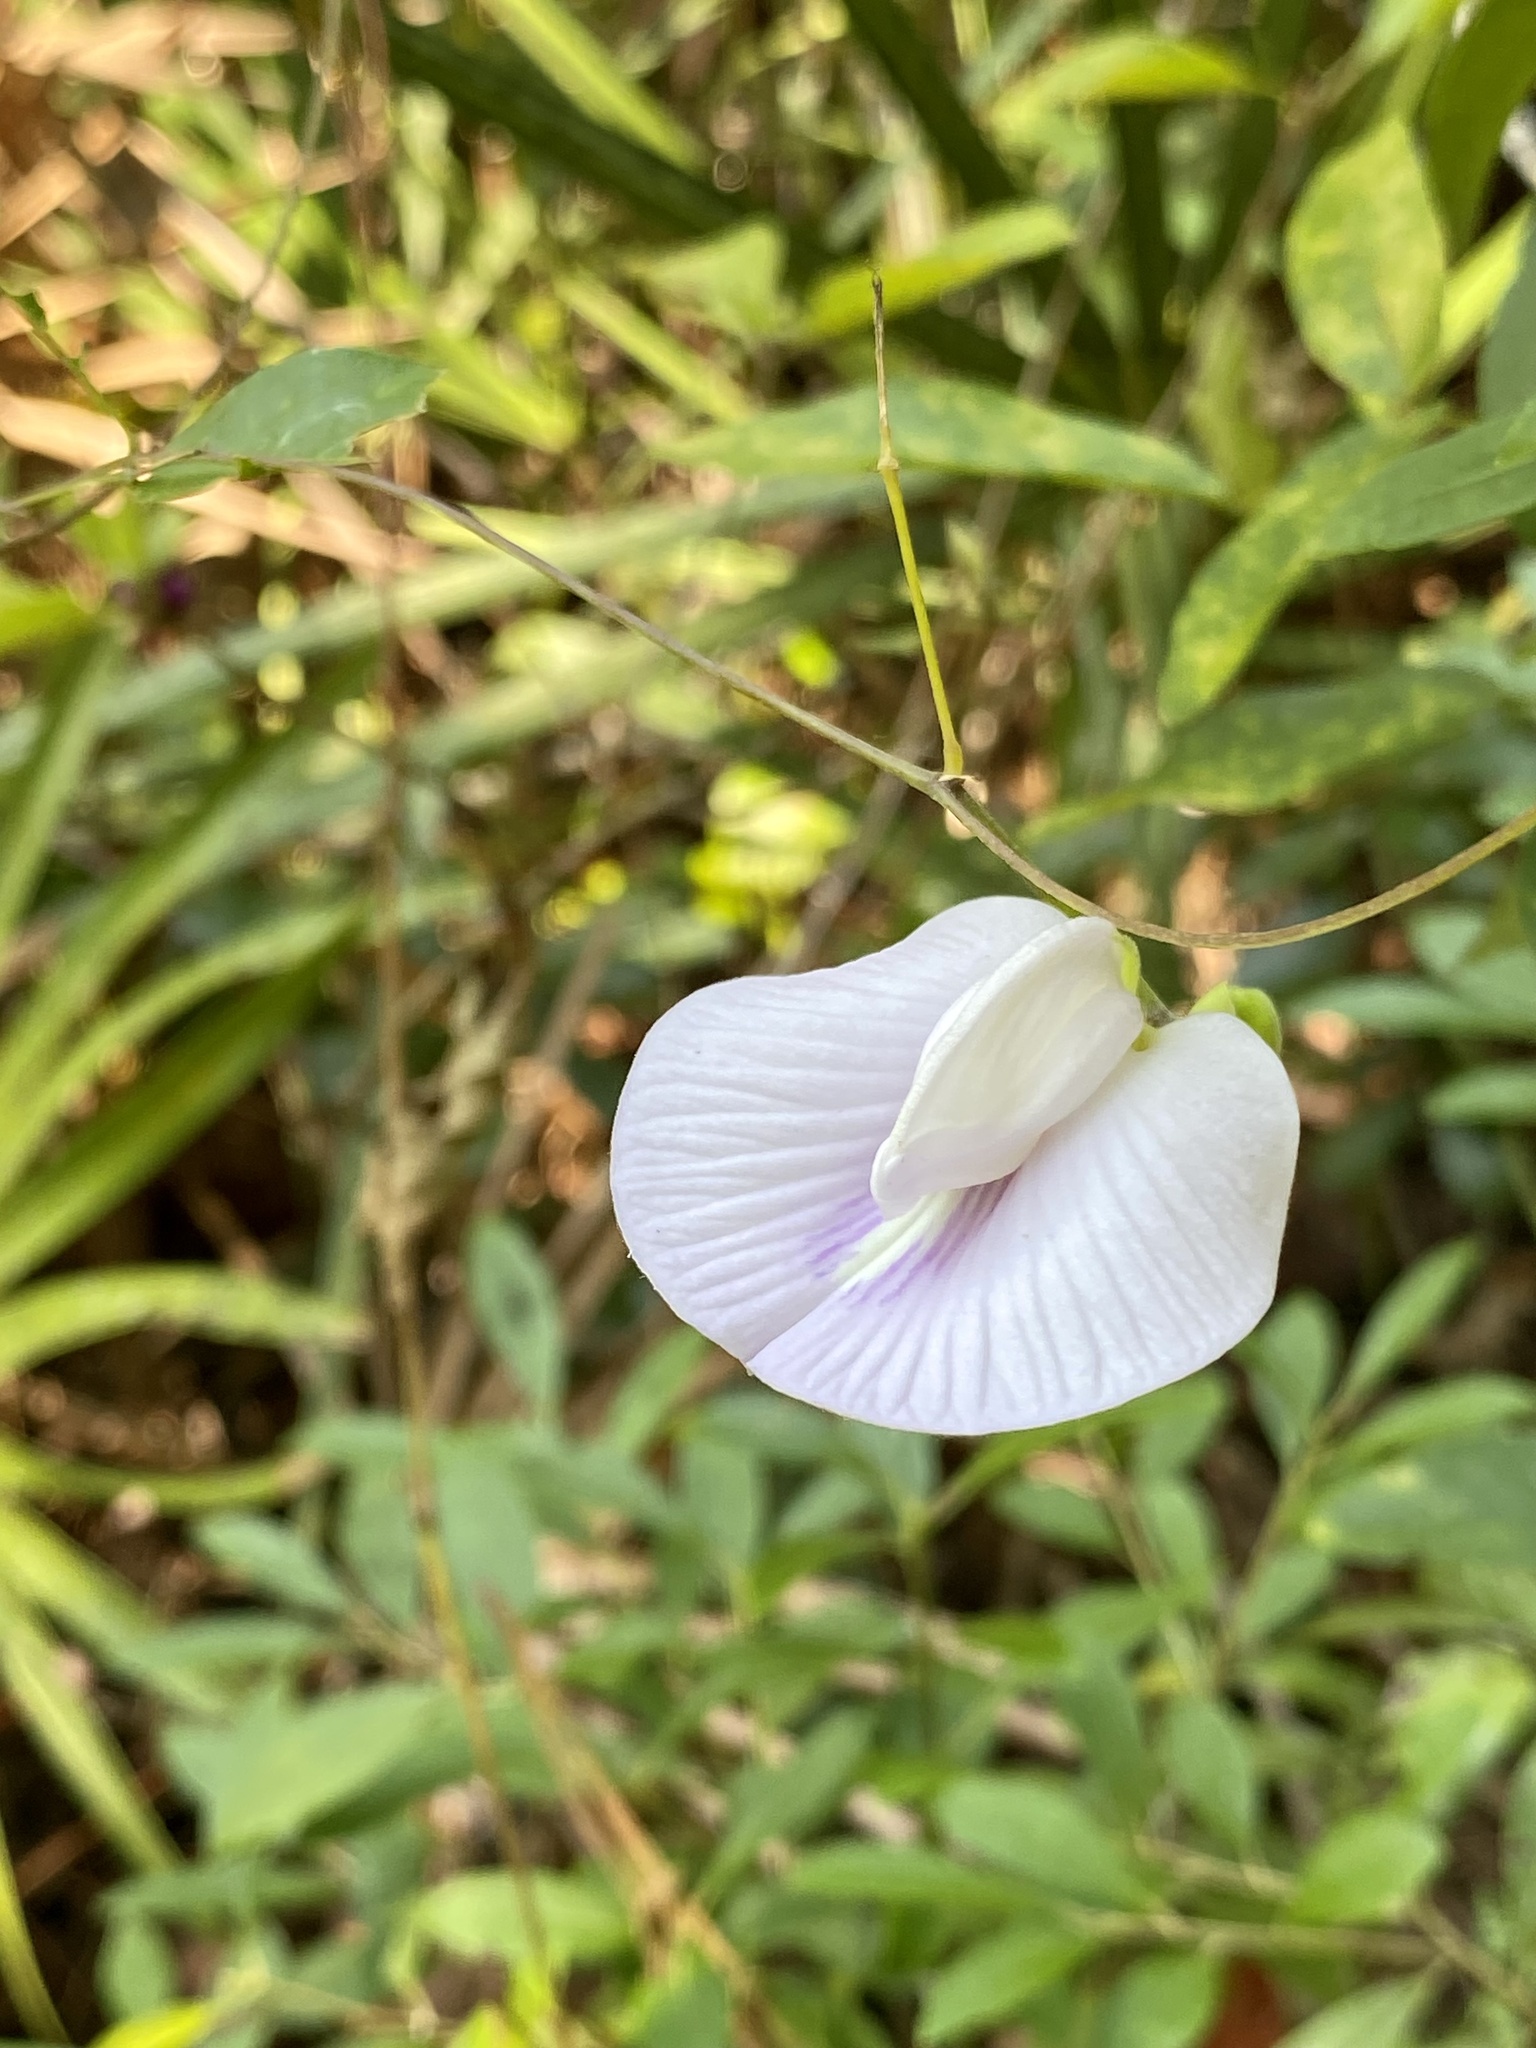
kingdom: Plantae
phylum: Tracheophyta
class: Magnoliopsida
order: Fabales
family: Fabaceae
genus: Centrosema
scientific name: Centrosema arenicola
